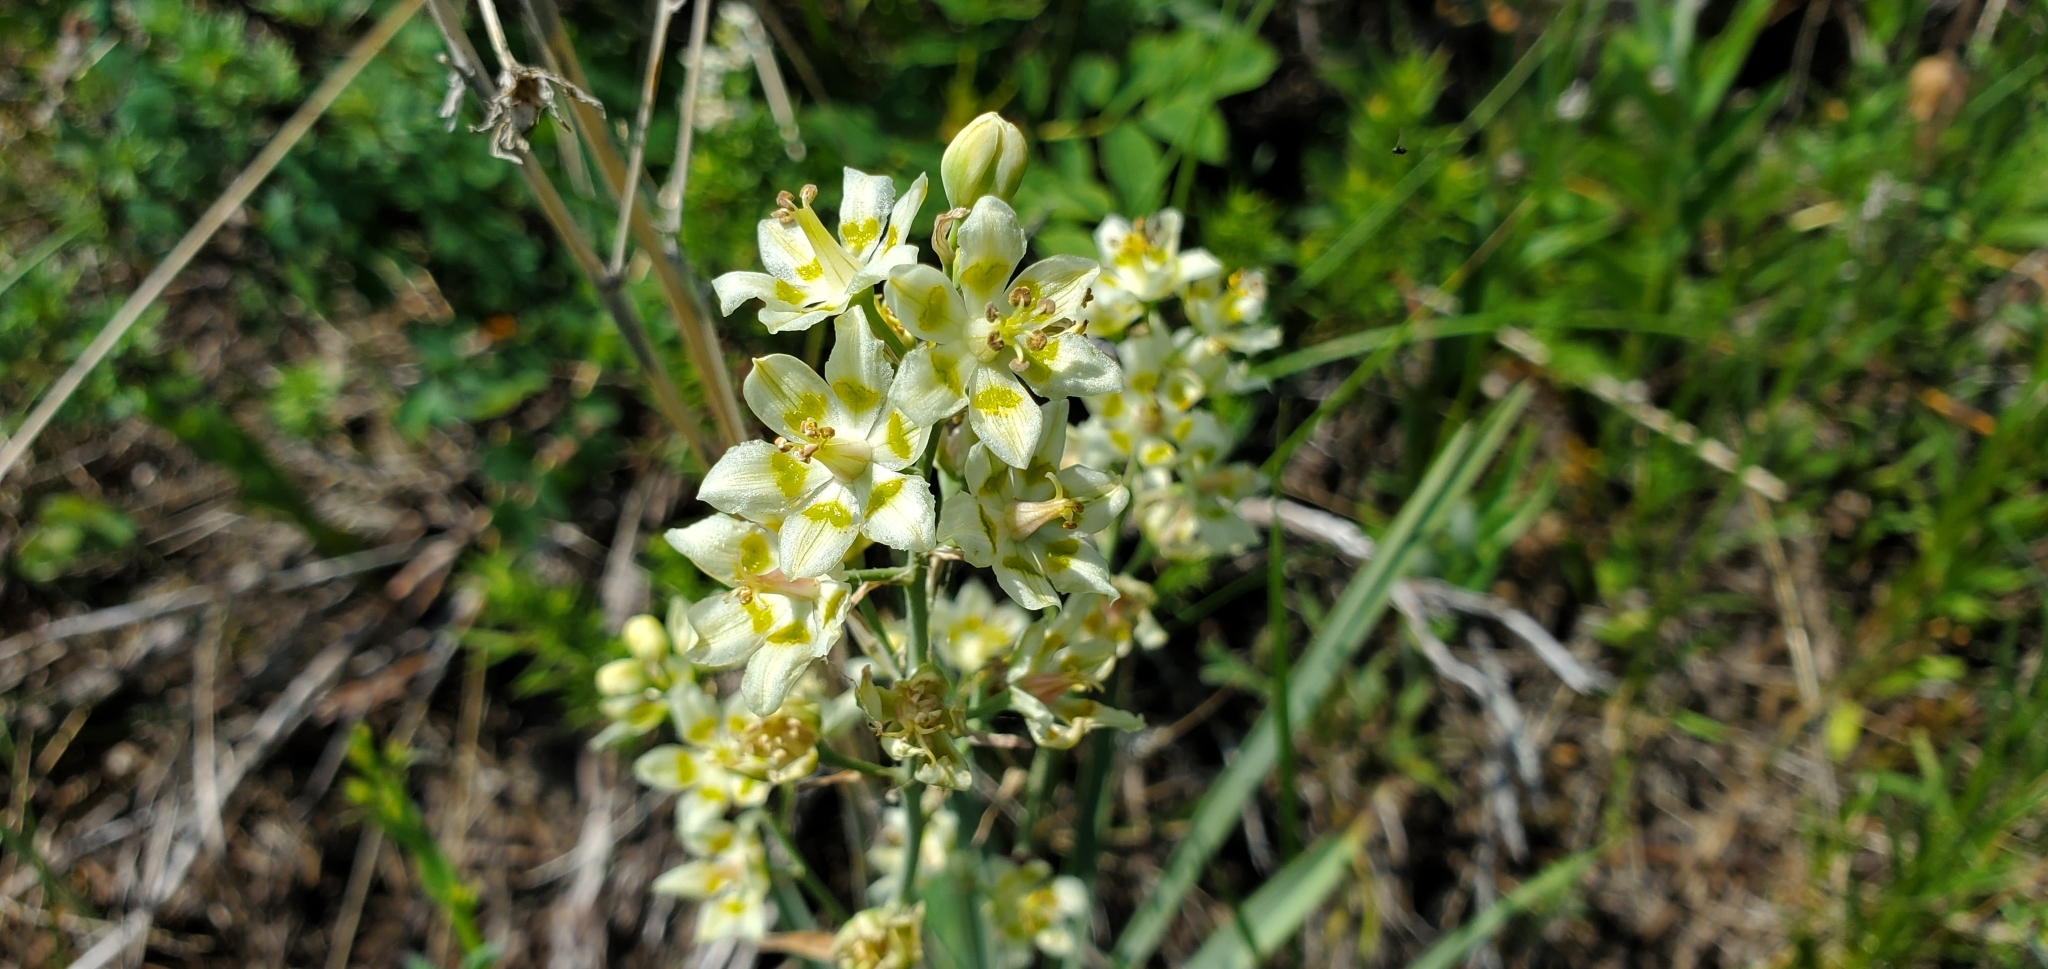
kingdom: Plantae
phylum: Tracheophyta
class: Liliopsida
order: Liliales
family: Melanthiaceae
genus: Anticlea
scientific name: Anticlea elegans
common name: Mountain death camas
